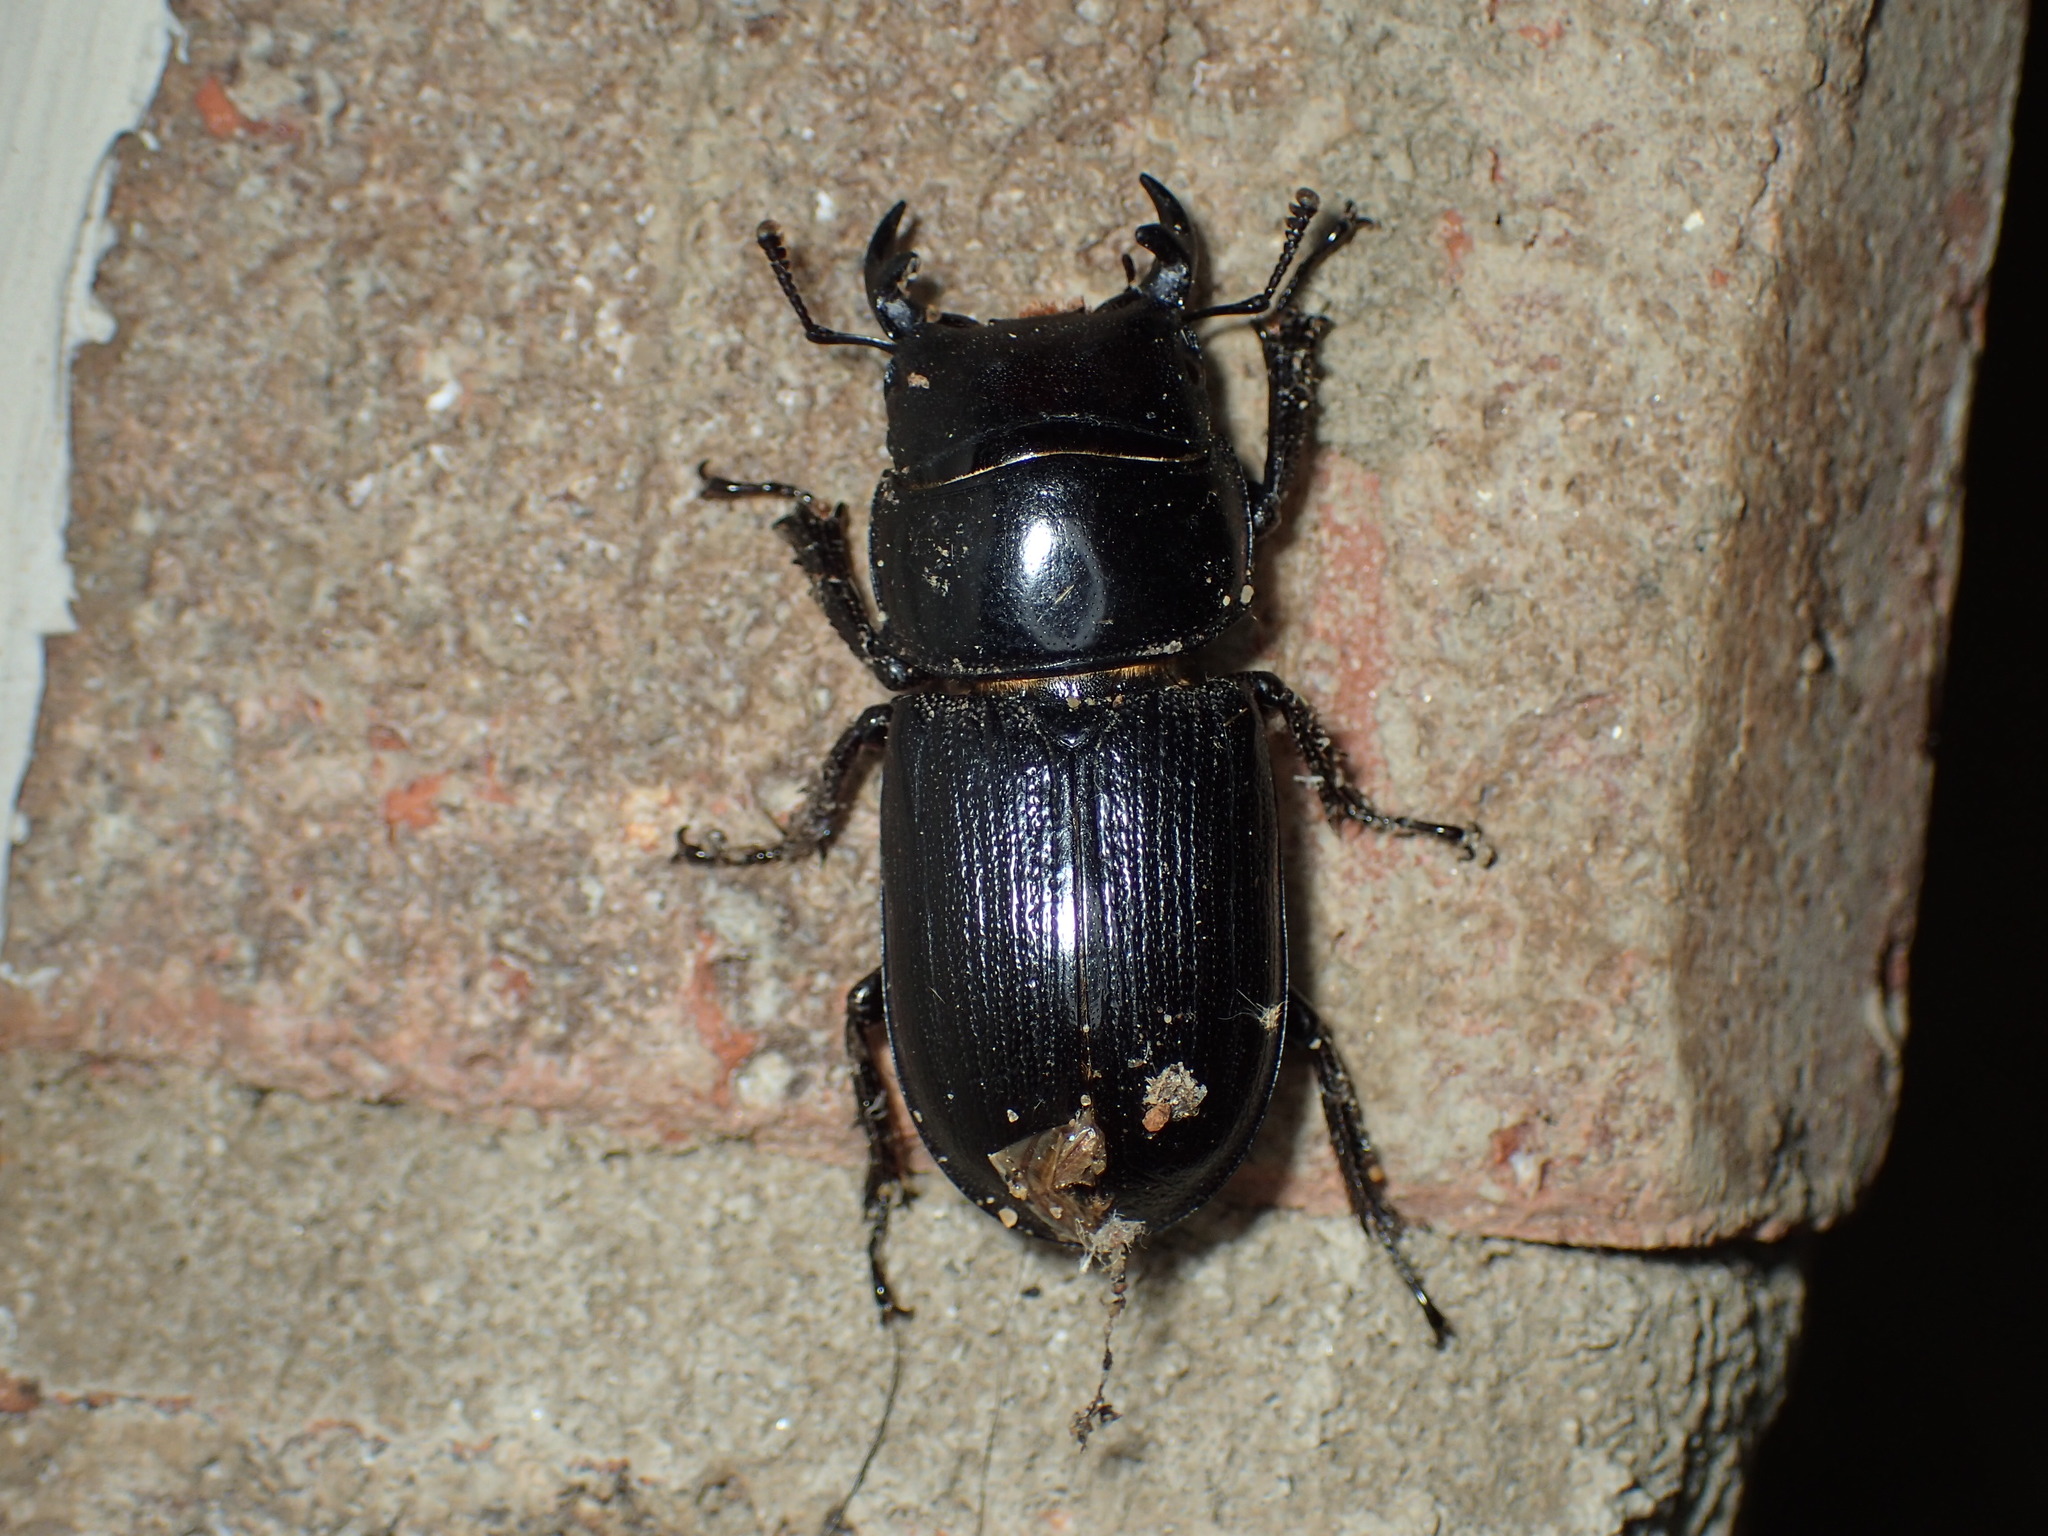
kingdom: Animalia
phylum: Arthropoda
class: Insecta
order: Coleoptera
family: Lucanidae
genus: Dorcus
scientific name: Dorcus parallelus
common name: Antelope beetle
